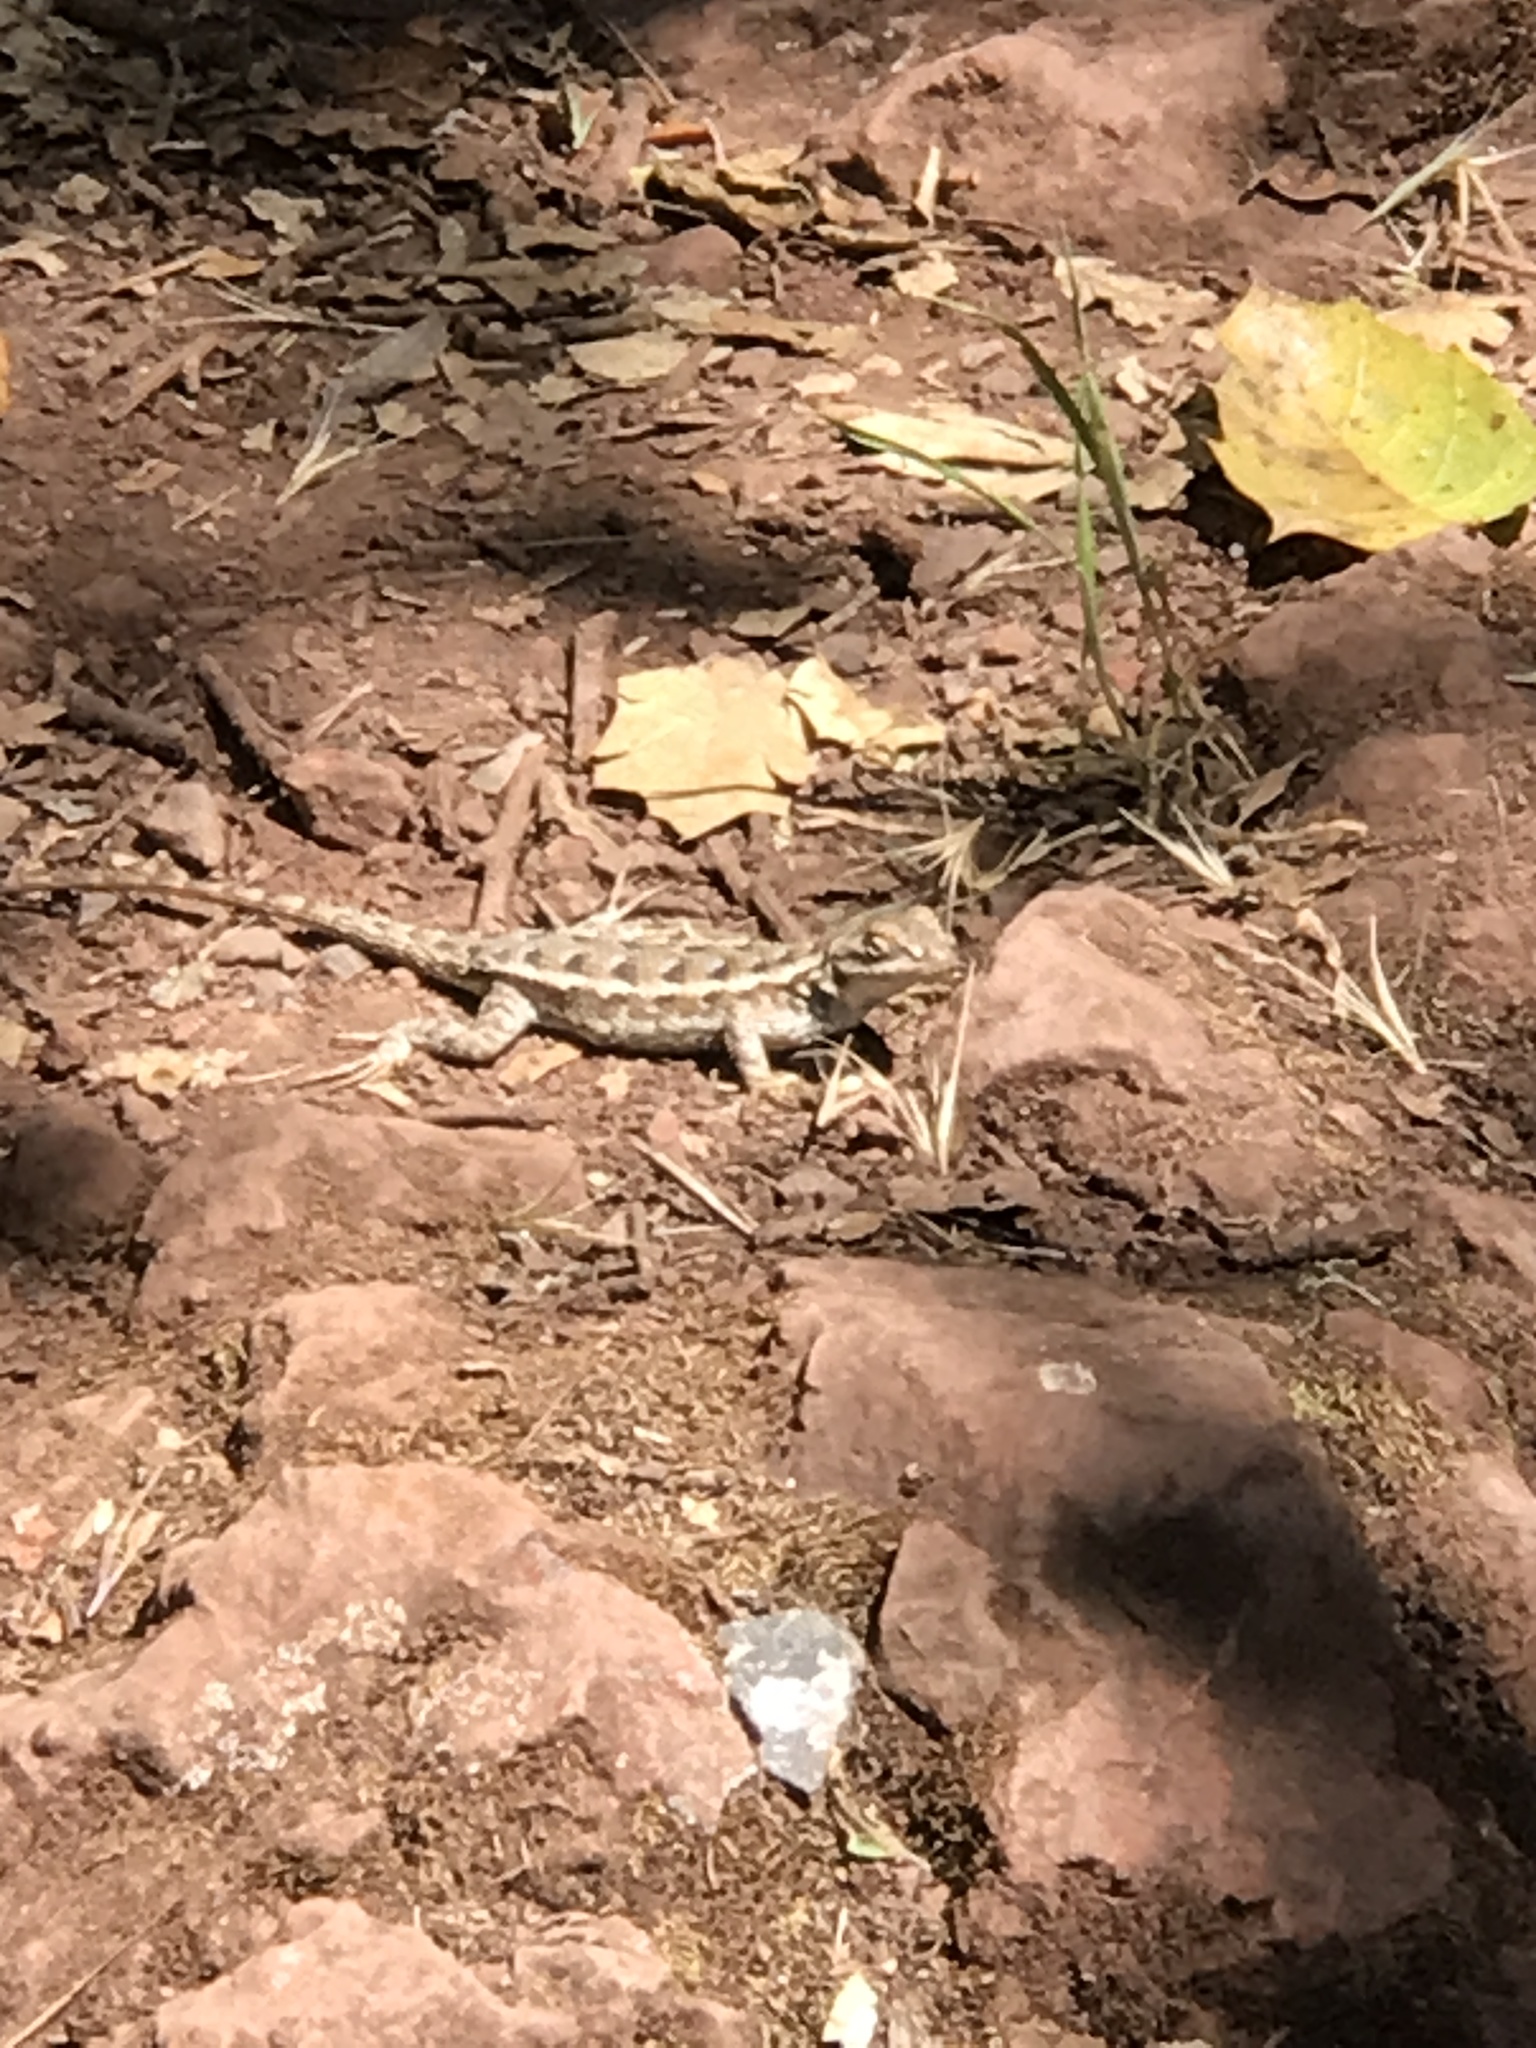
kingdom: Animalia
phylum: Chordata
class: Squamata
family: Phrynosomatidae
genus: Sceloporus
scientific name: Sceloporus occidentalis
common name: Western fence lizard
